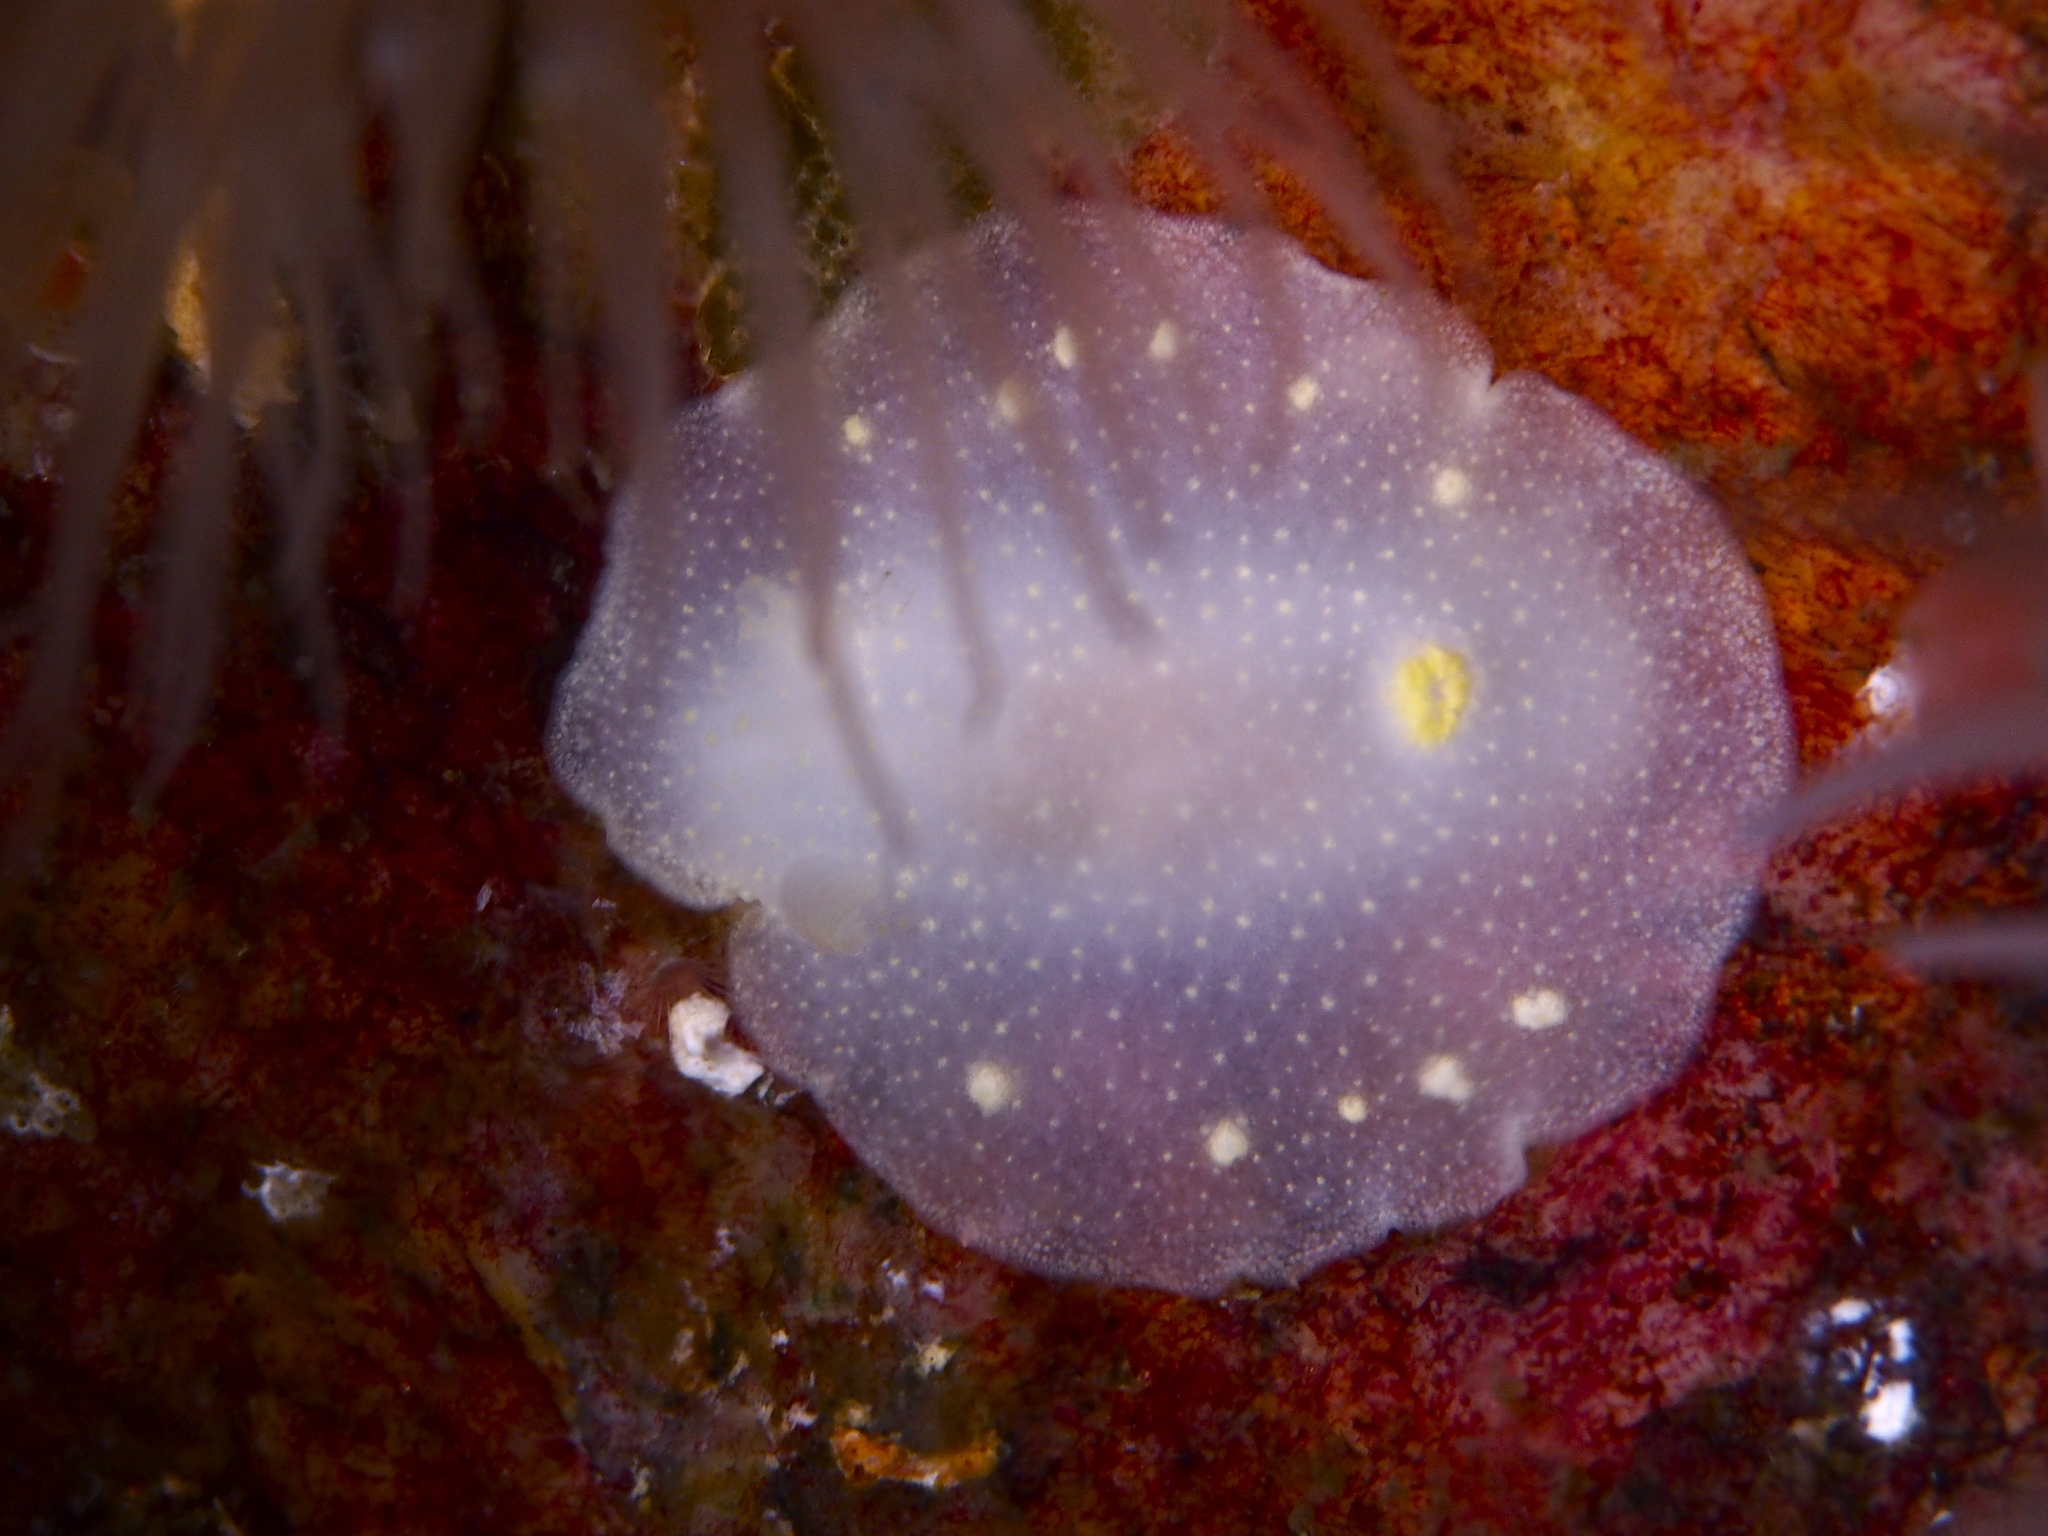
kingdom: Animalia
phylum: Mollusca
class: Gastropoda
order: Nudibranchia
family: Cadlinidae
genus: Cadlina
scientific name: Cadlina laevis
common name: White atlantic cadlina
